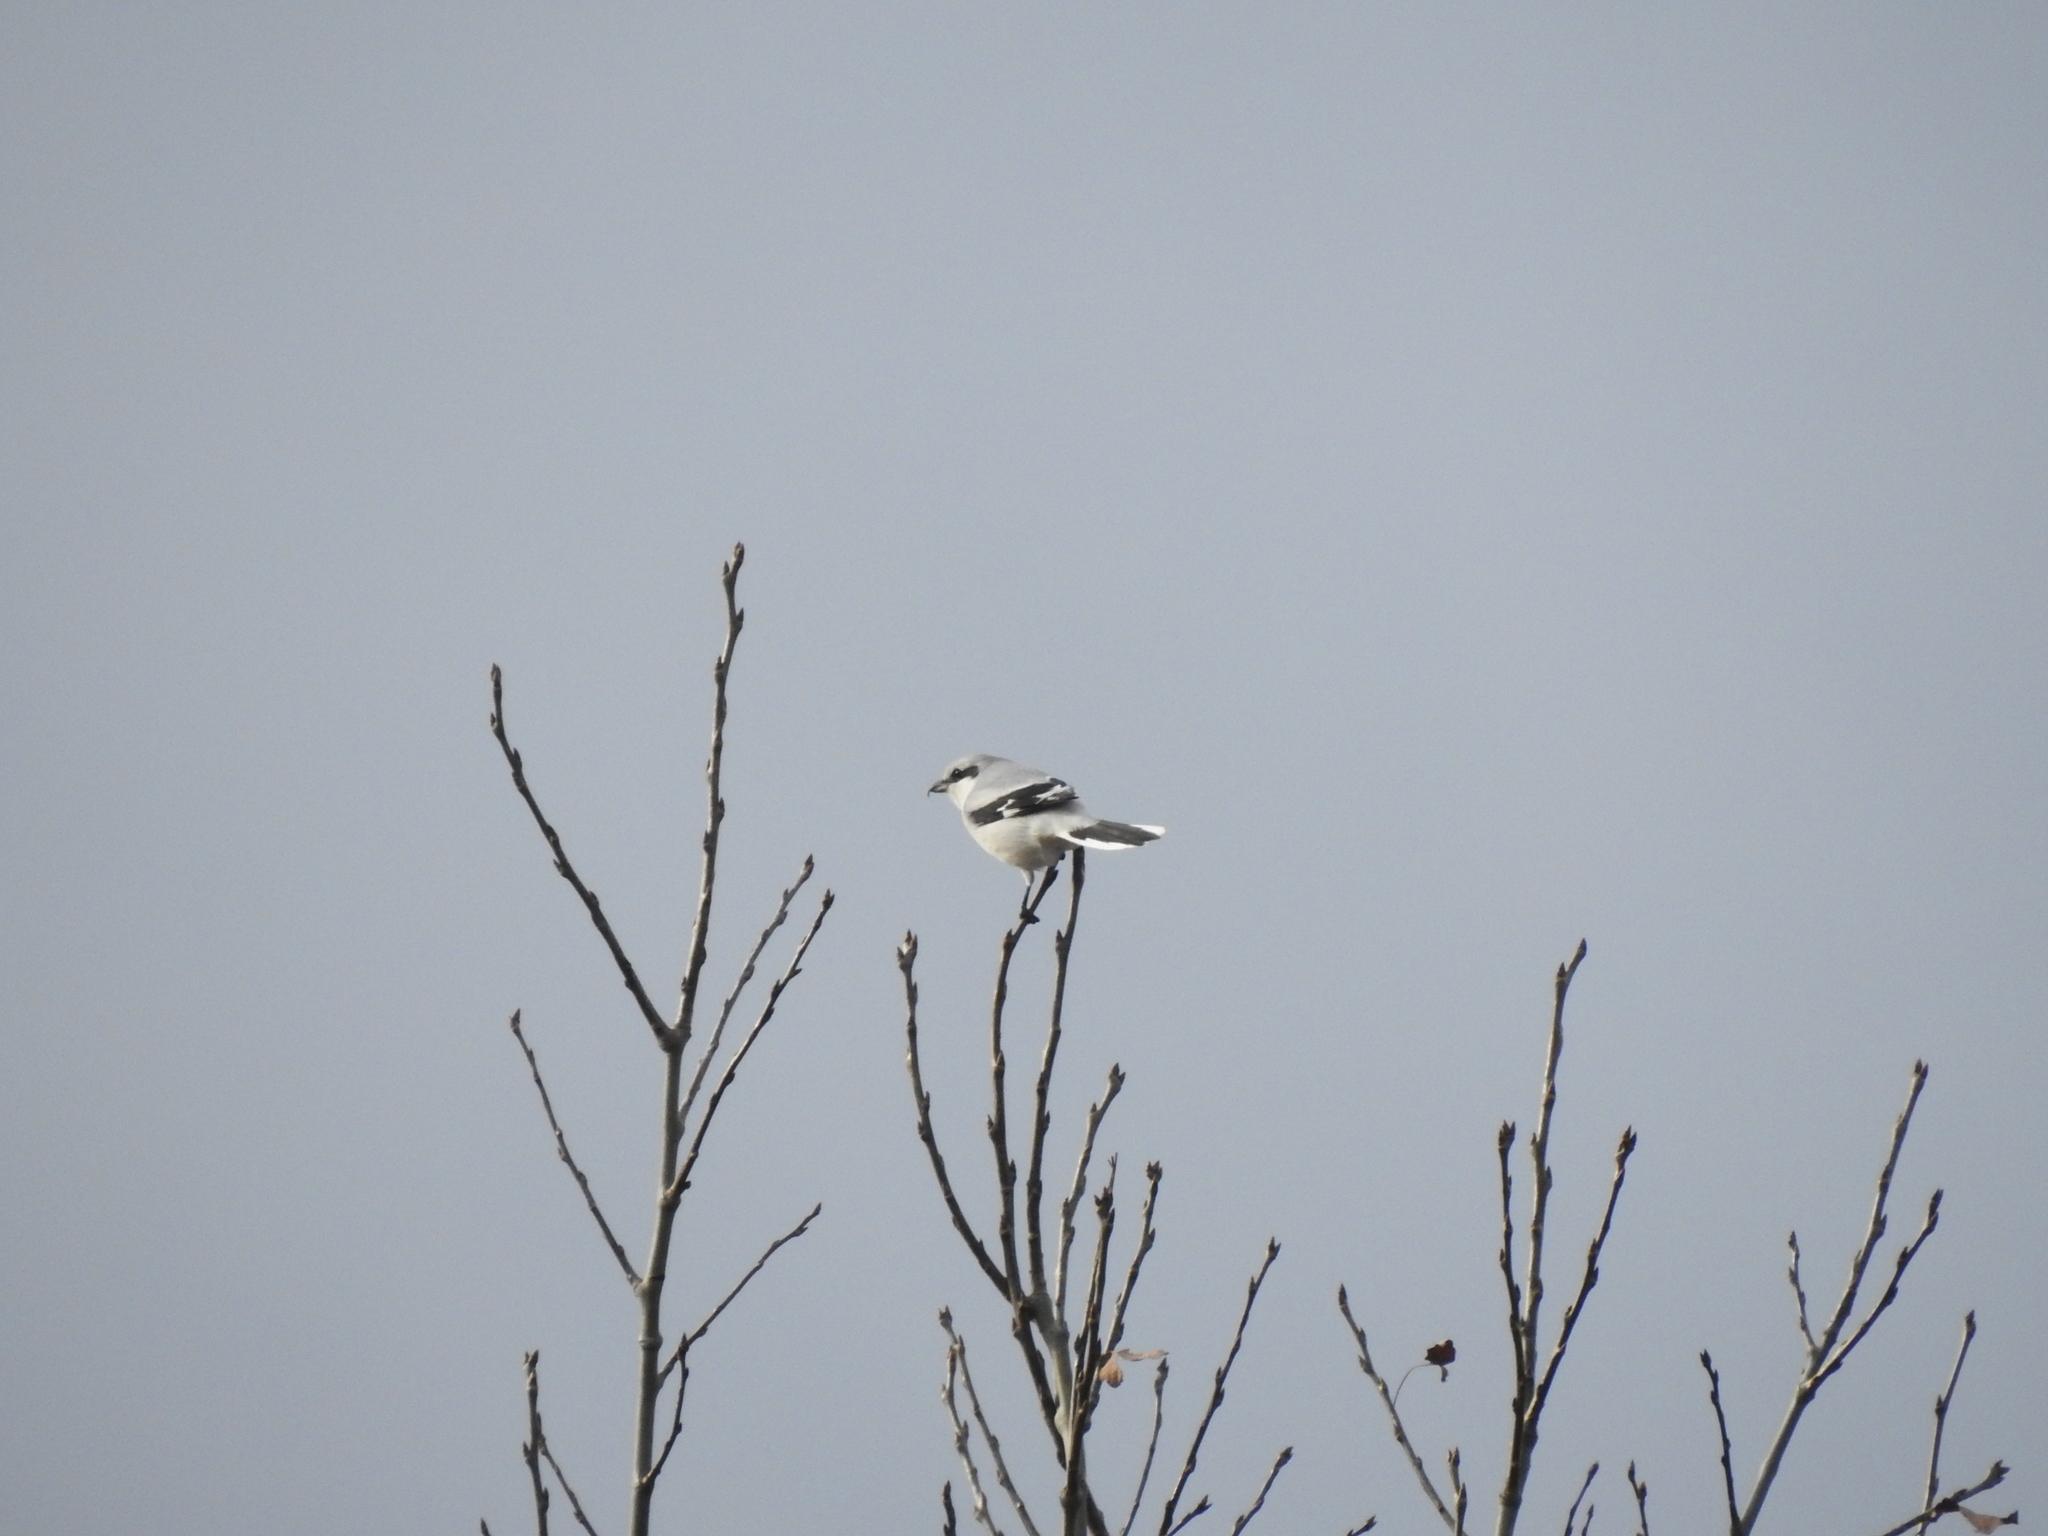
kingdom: Animalia
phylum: Chordata
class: Aves
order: Passeriformes
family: Laniidae
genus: Lanius
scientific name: Lanius excubitor
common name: Great grey shrike
